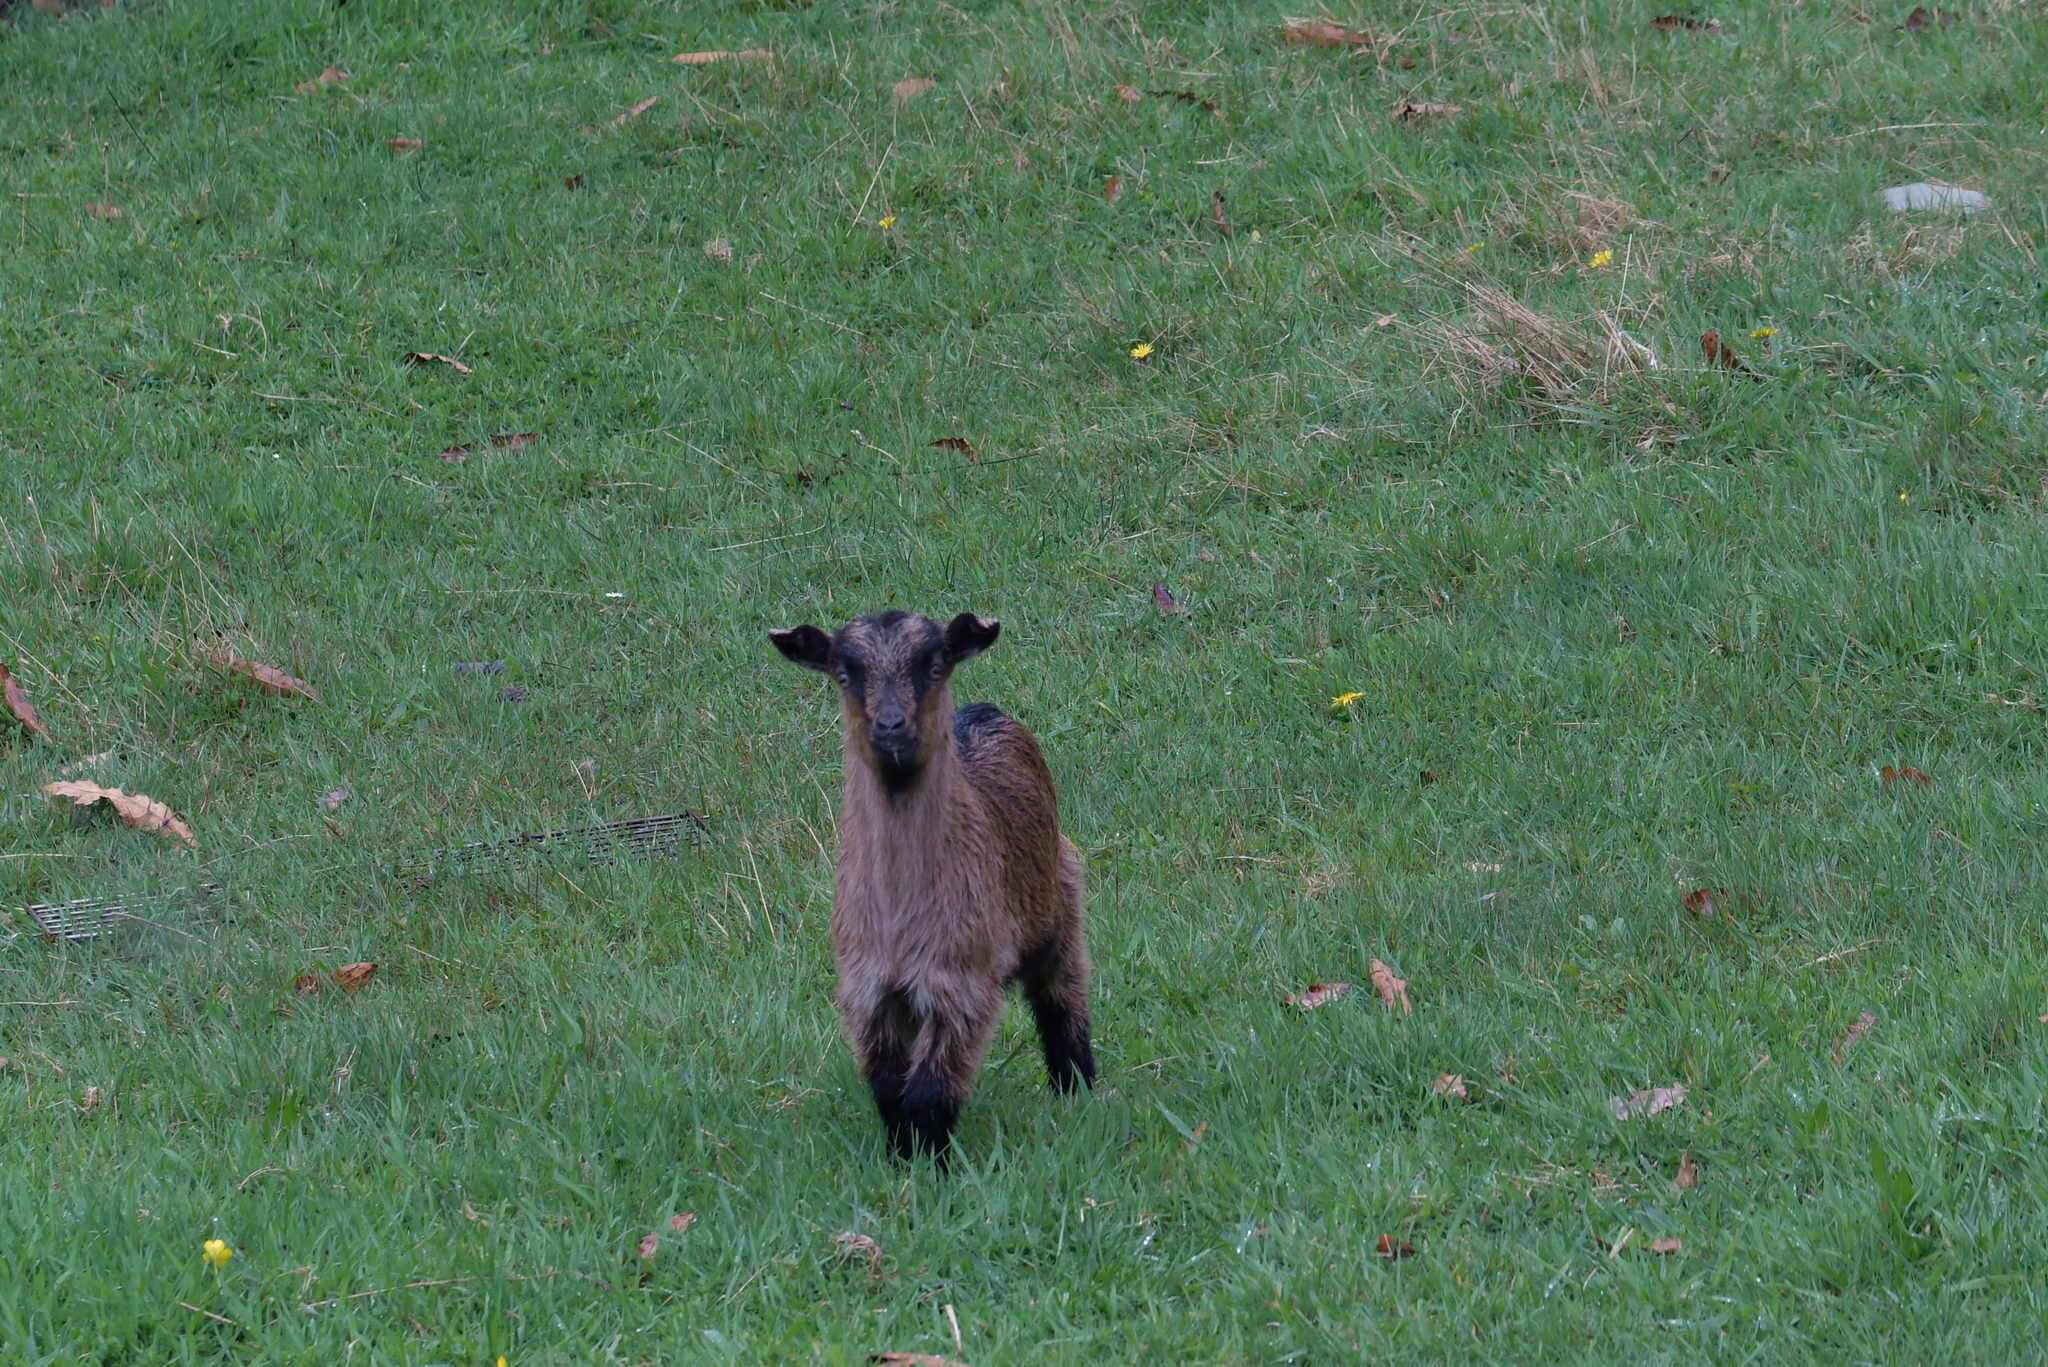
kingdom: Animalia
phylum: Chordata
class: Mammalia
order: Artiodactyla
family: Bovidae
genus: Capra
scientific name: Capra hircus
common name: Domestic goat
